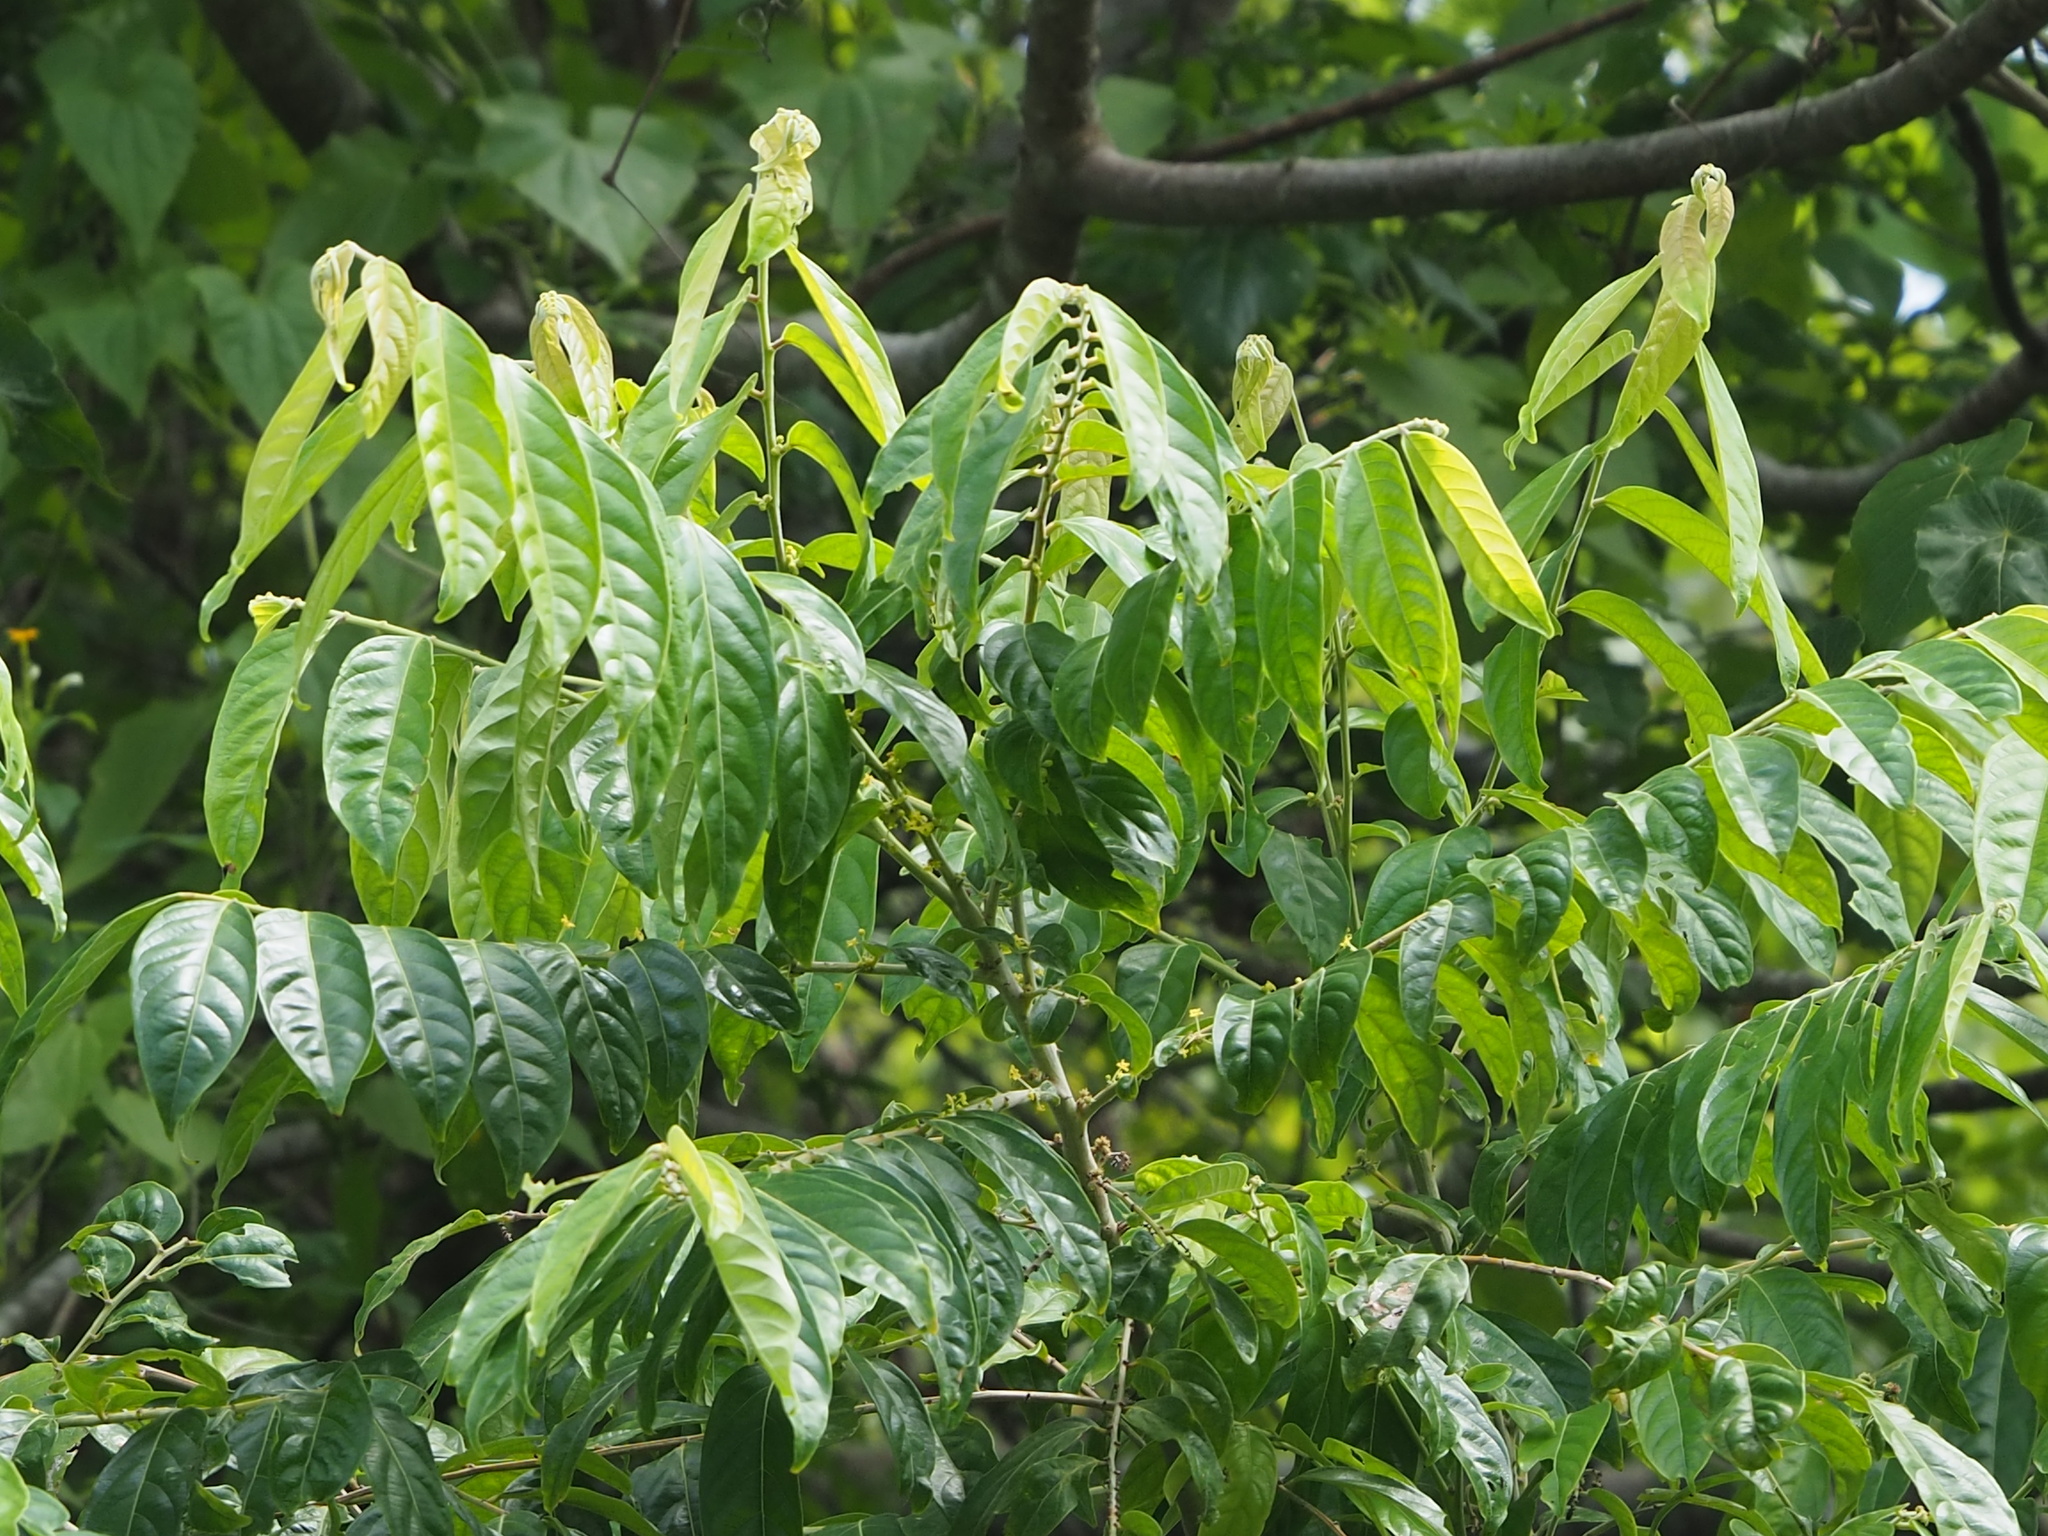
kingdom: Plantae
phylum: Tracheophyta
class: Magnoliopsida
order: Malpighiales
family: Phyllanthaceae
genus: Glochidion
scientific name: Glochidion philippicum
